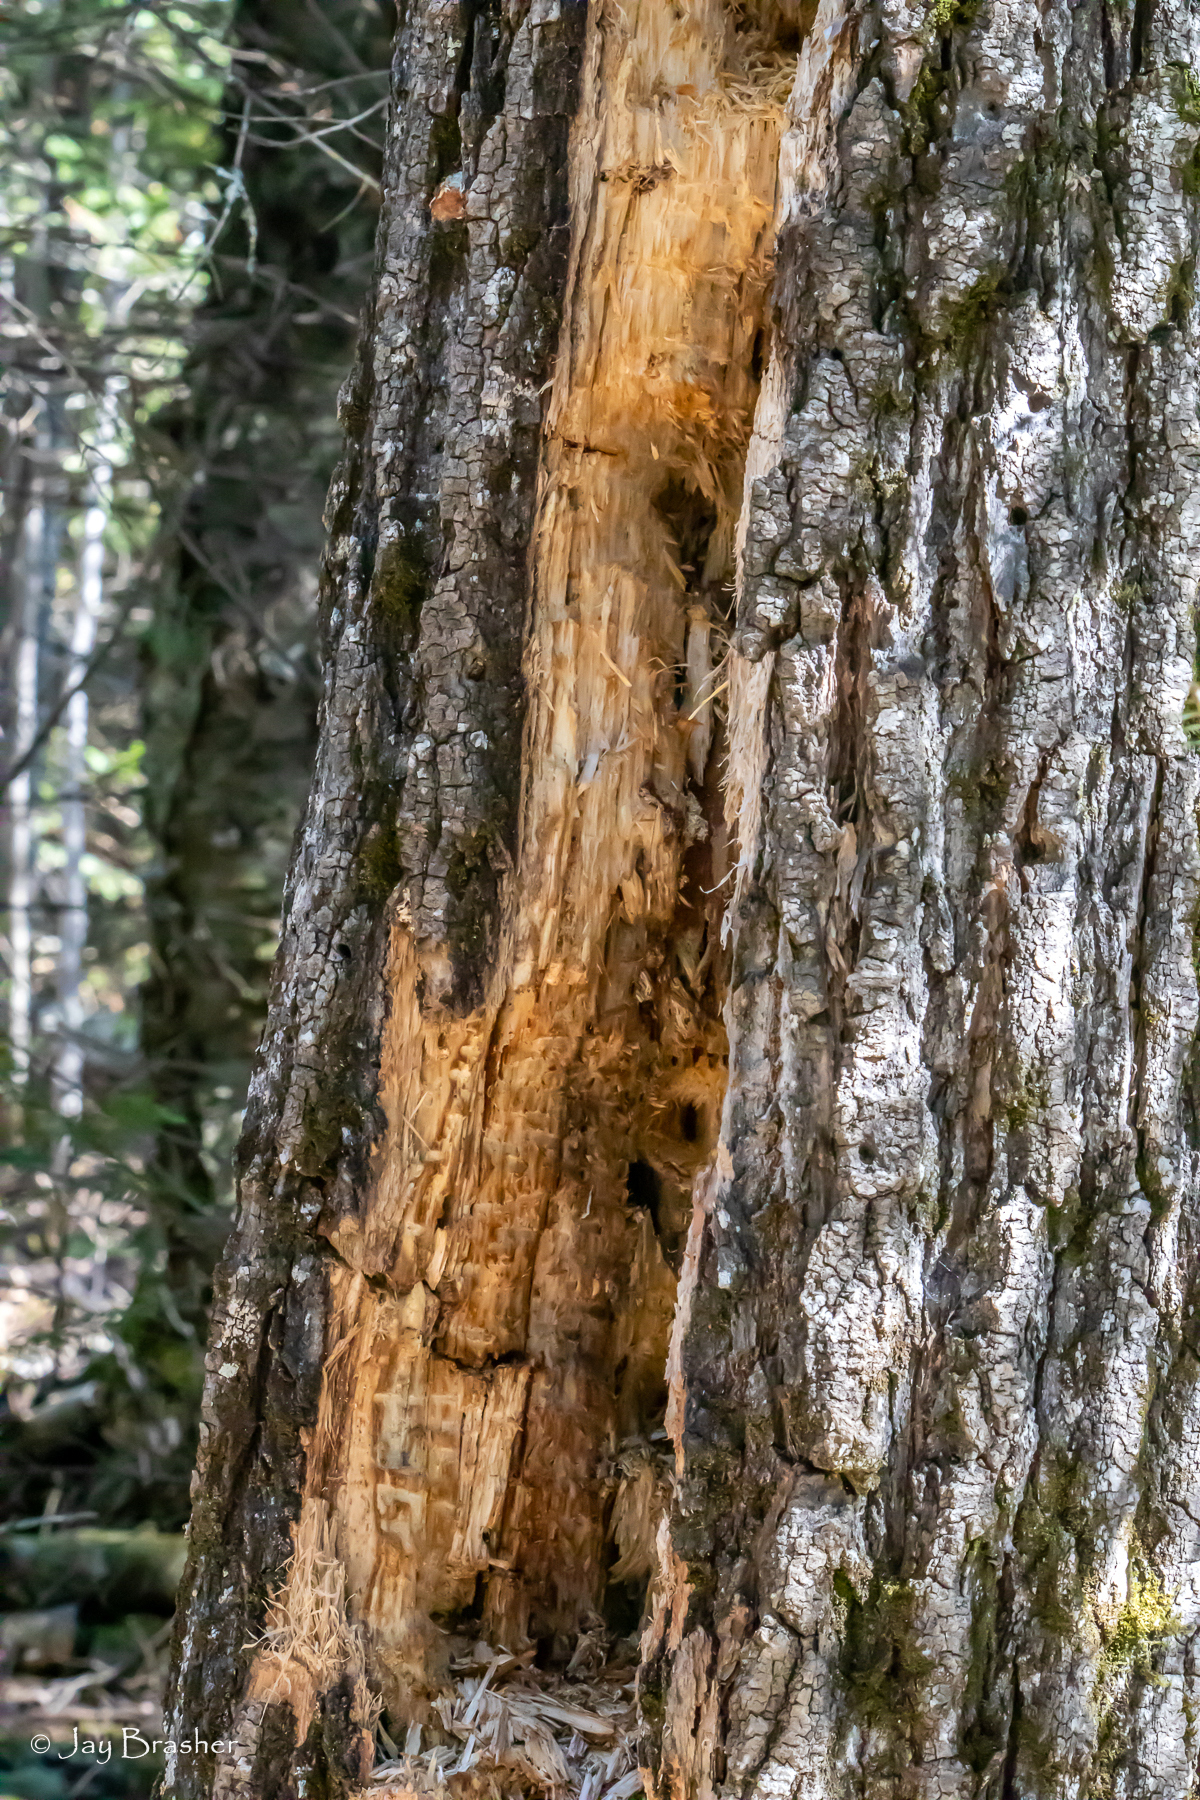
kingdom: Animalia
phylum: Chordata
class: Aves
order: Piciformes
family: Picidae
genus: Dryocopus
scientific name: Dryocopus pileatus
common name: Pileated woodpecker
